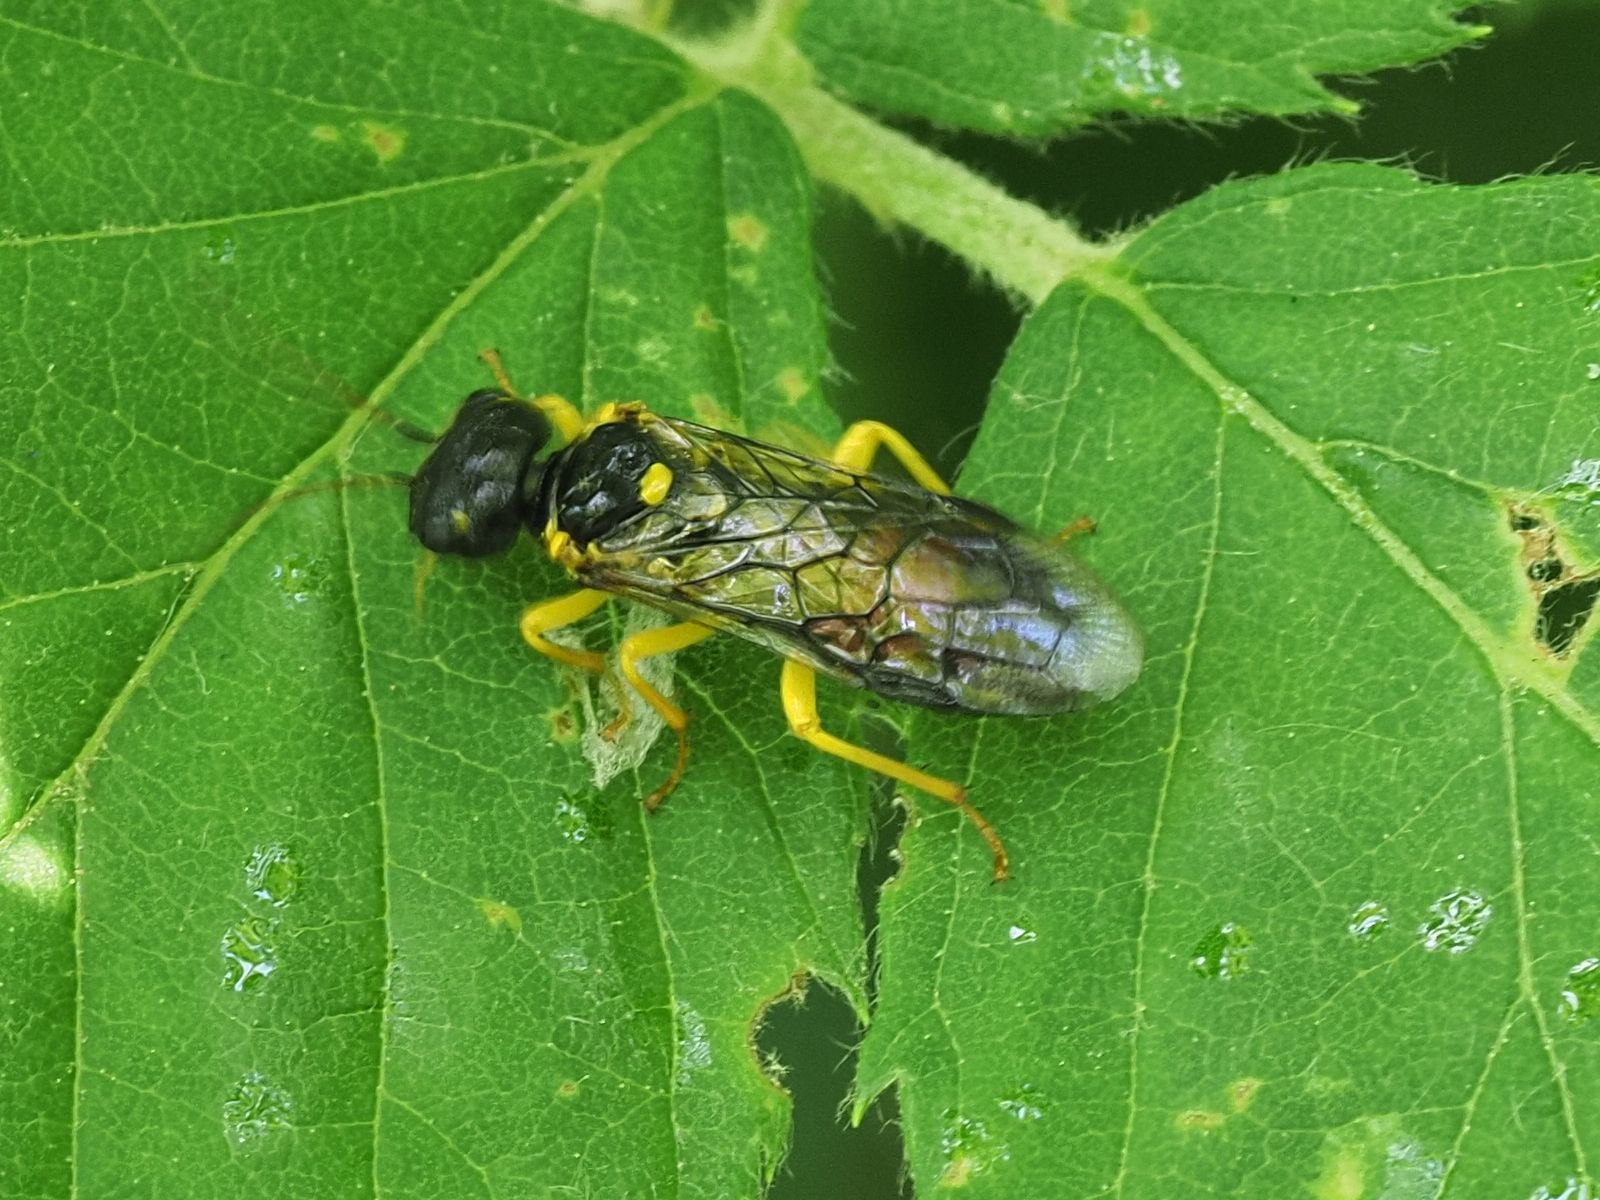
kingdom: Animalia
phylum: Arthropoda
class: Insecta
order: Hymenoptera
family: Pamphiliidae
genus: Pamphilius
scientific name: Pamphilius hortorum
